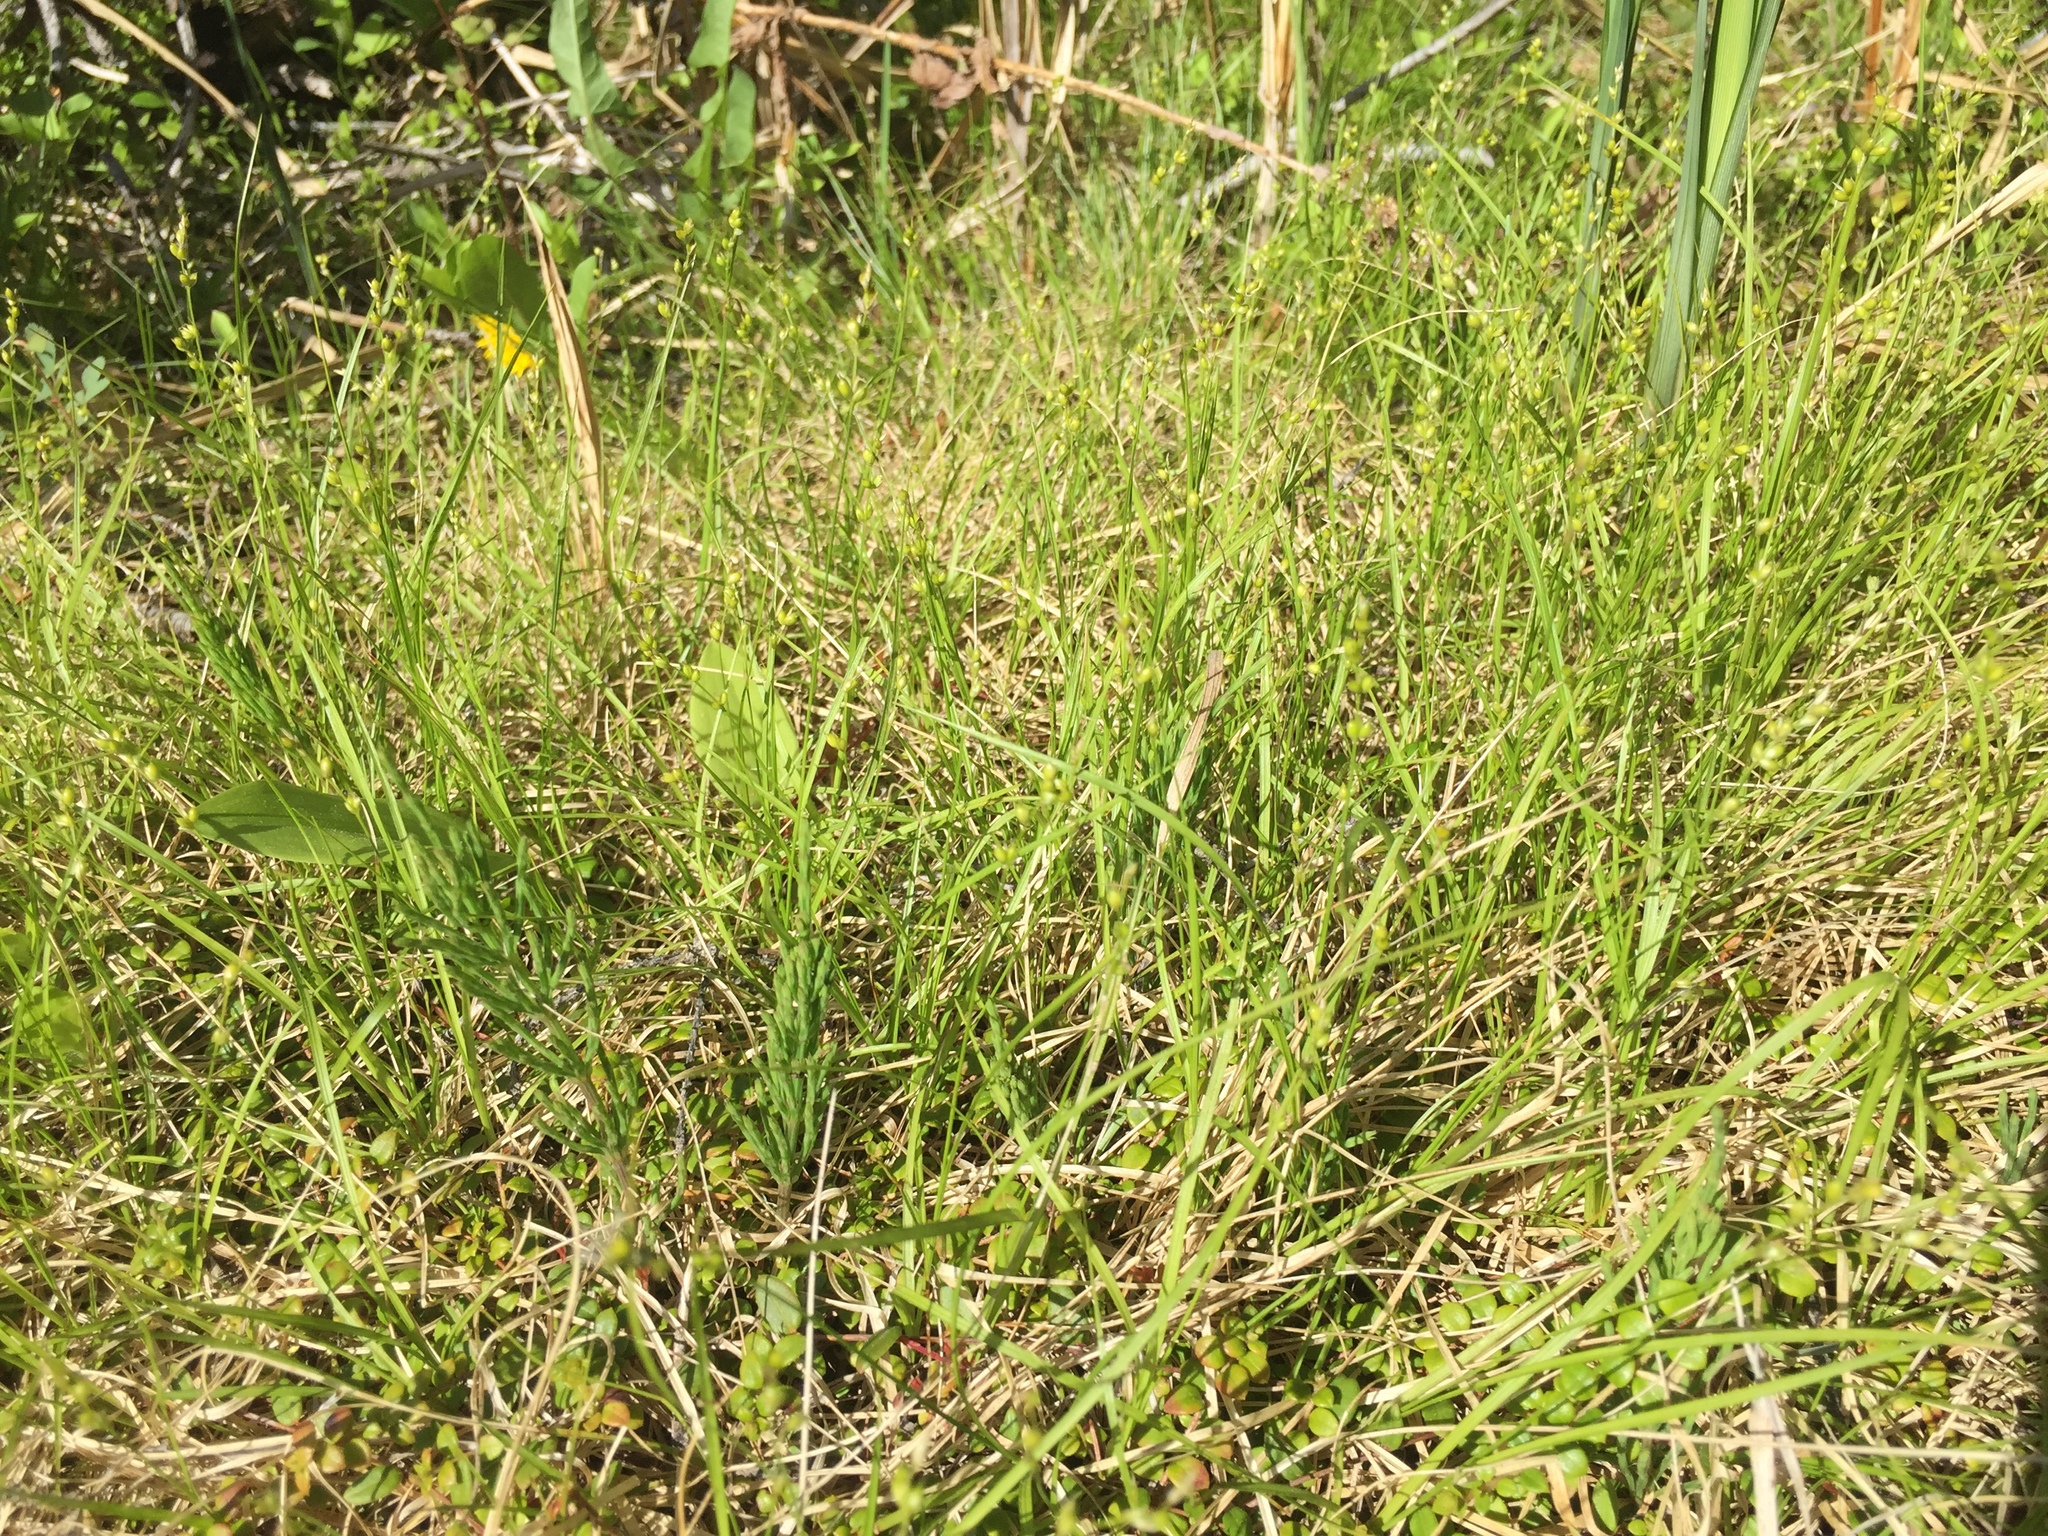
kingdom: Plantae
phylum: Tracheophyta
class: Liliopsida
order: Poales
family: Cyperaceae
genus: Carex
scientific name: Carex disperma
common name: Short-leaved sedge
